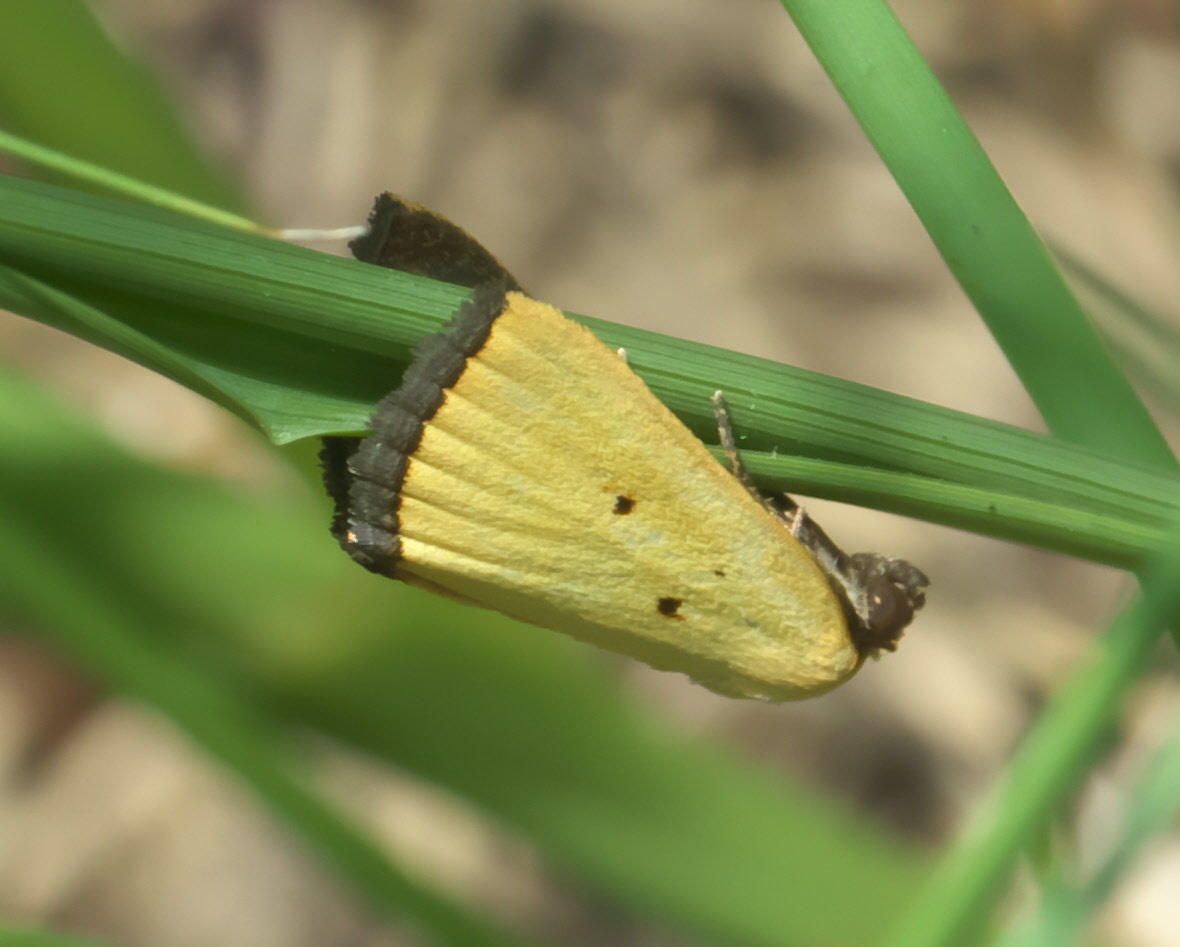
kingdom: Animalia
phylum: Arthropoda
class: Insecta
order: Lepidoptera
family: Noctuidae
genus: Marimatha
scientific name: Marimatha nigrofimbria
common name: Black-bordered lemon moth
